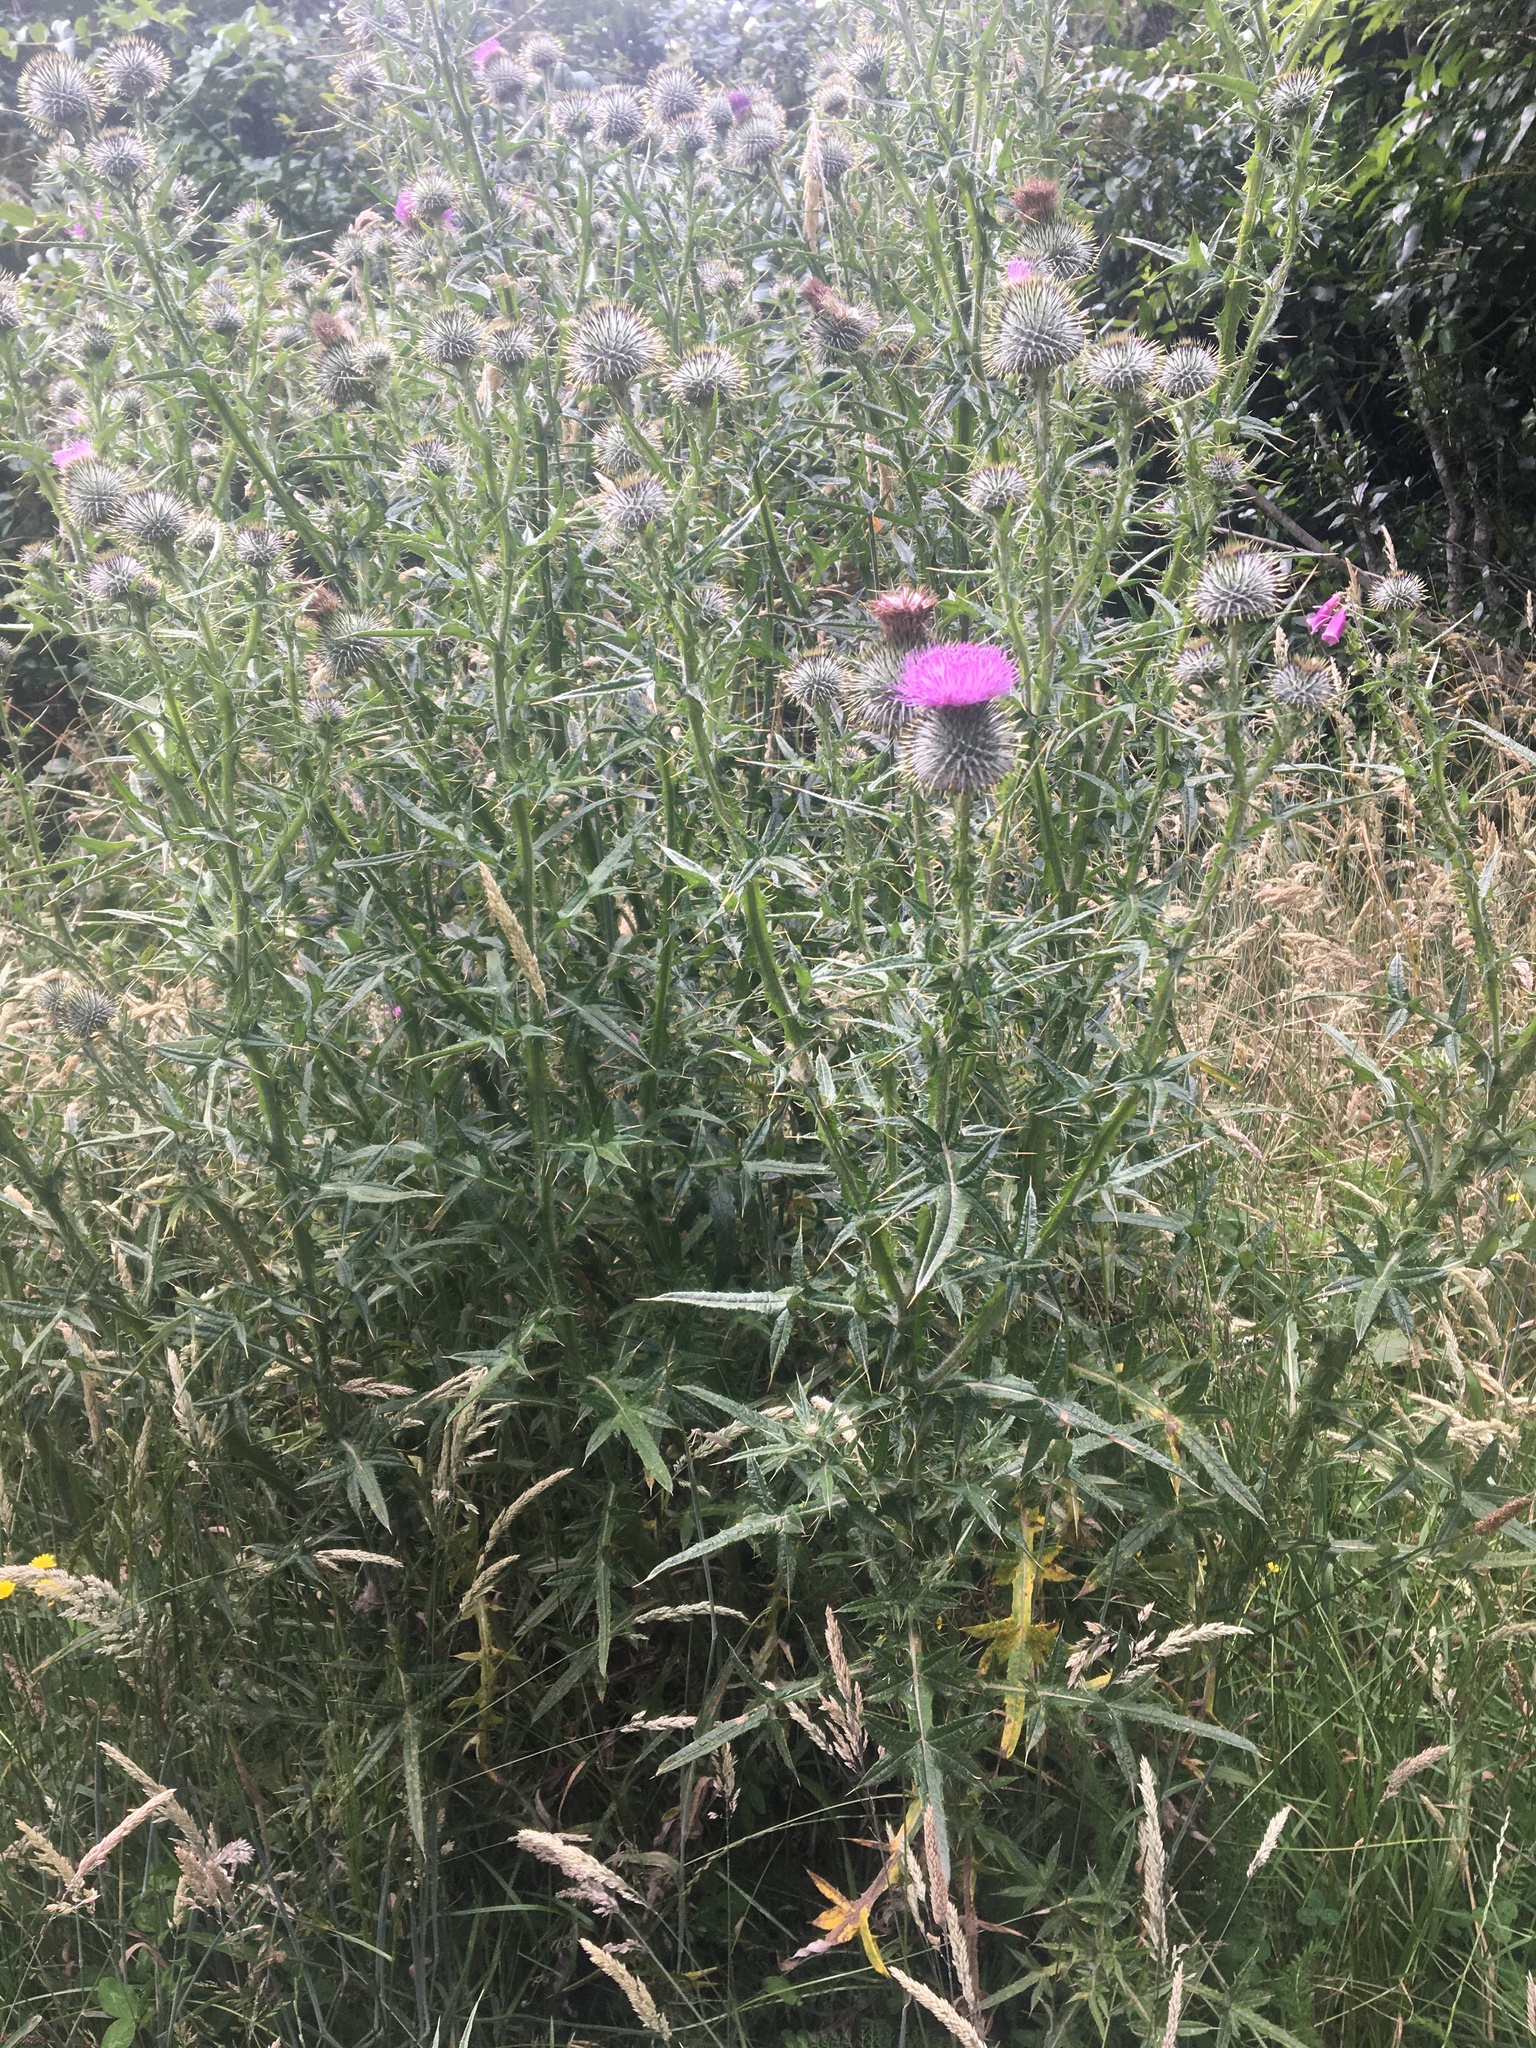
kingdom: Plantae
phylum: Tracheophyta
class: Magnoliopsida
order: Asterales
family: Asteraceae
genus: Cirsium
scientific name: Cirsium vulgare
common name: Bull thistle
